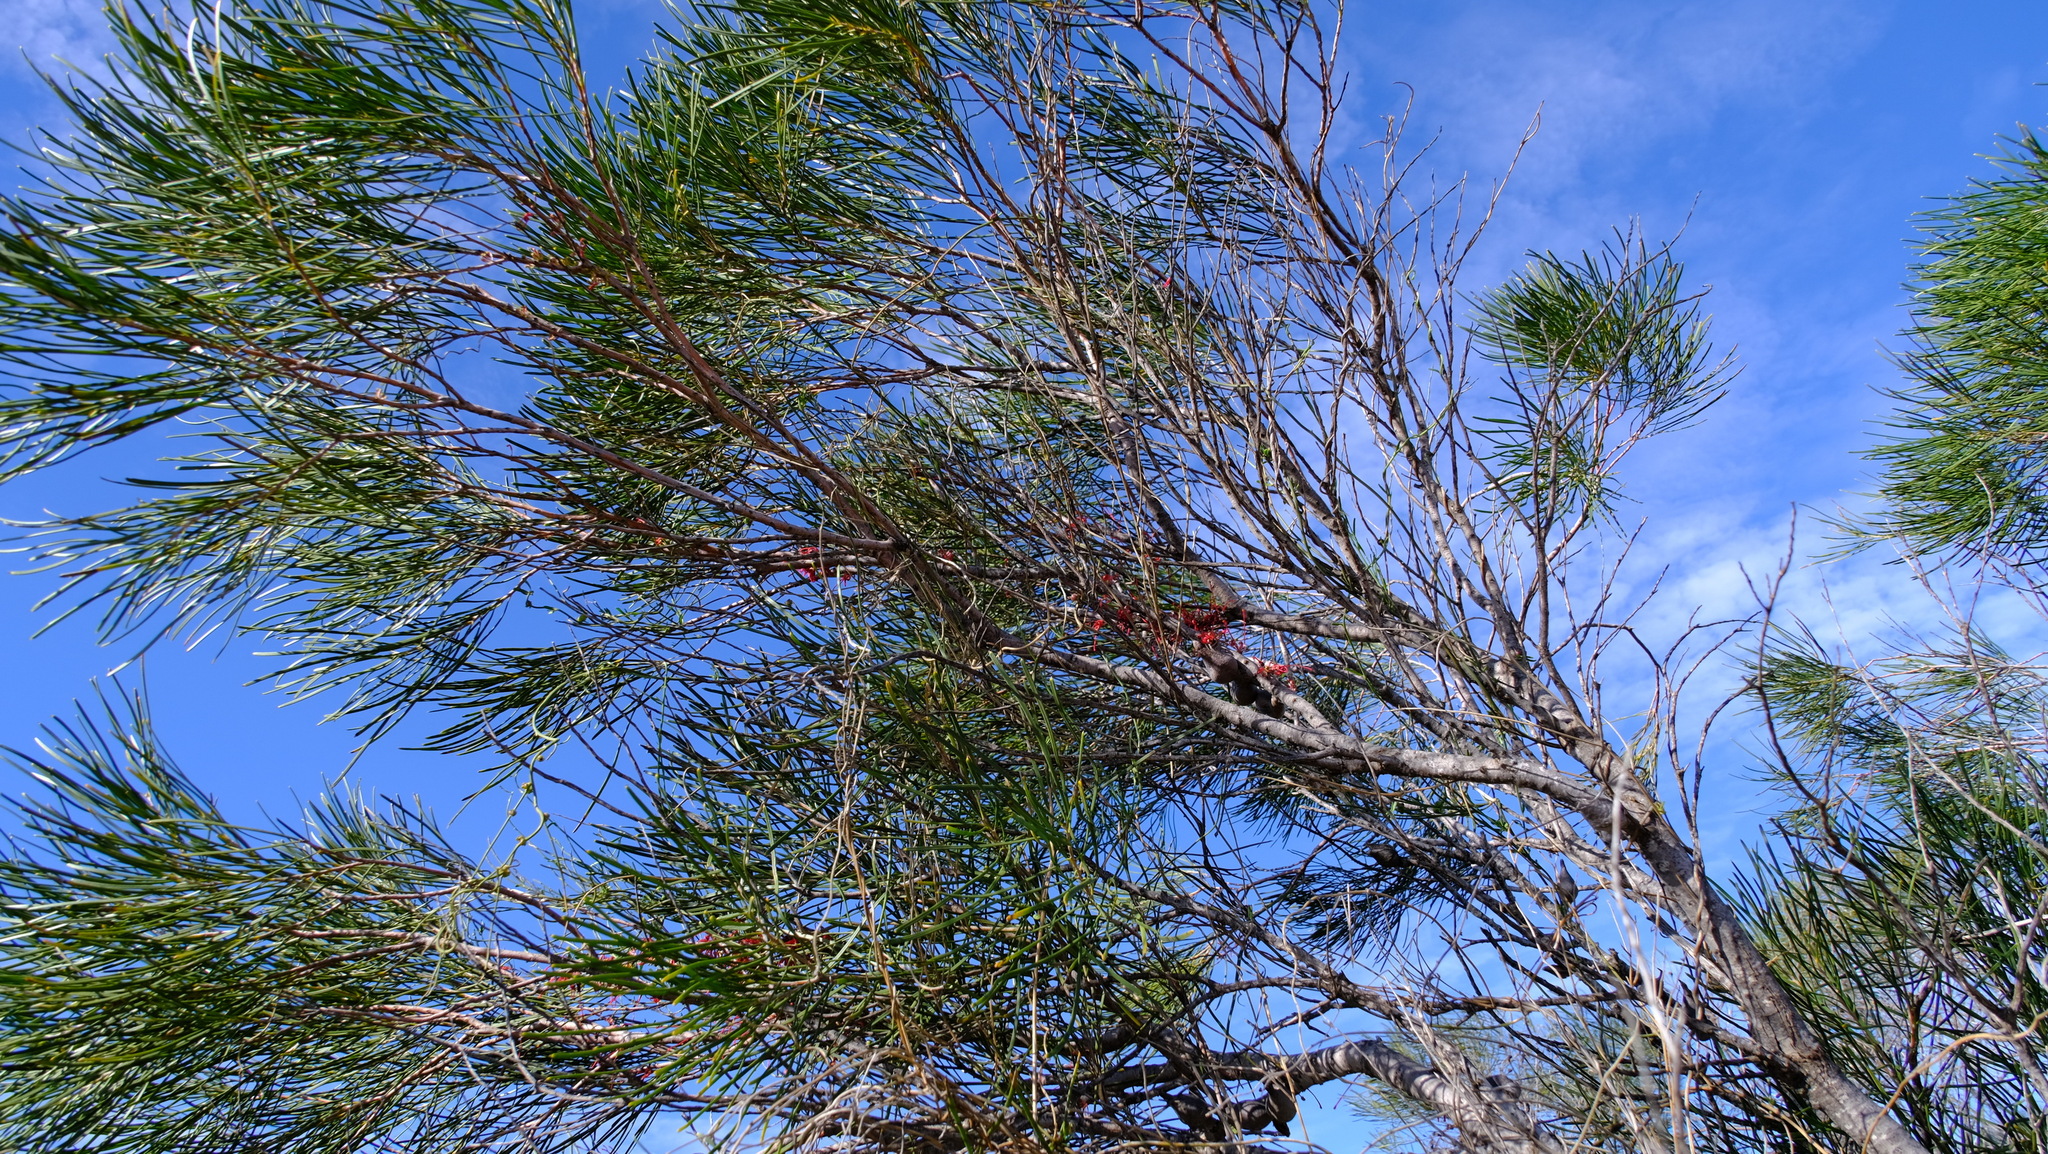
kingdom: Plantae
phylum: Tracheophyta
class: Magnoliopsida
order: Proteales
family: Proteaceae
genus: Hakea
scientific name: Hakea orthorrhyncha
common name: Bird beak hakea
